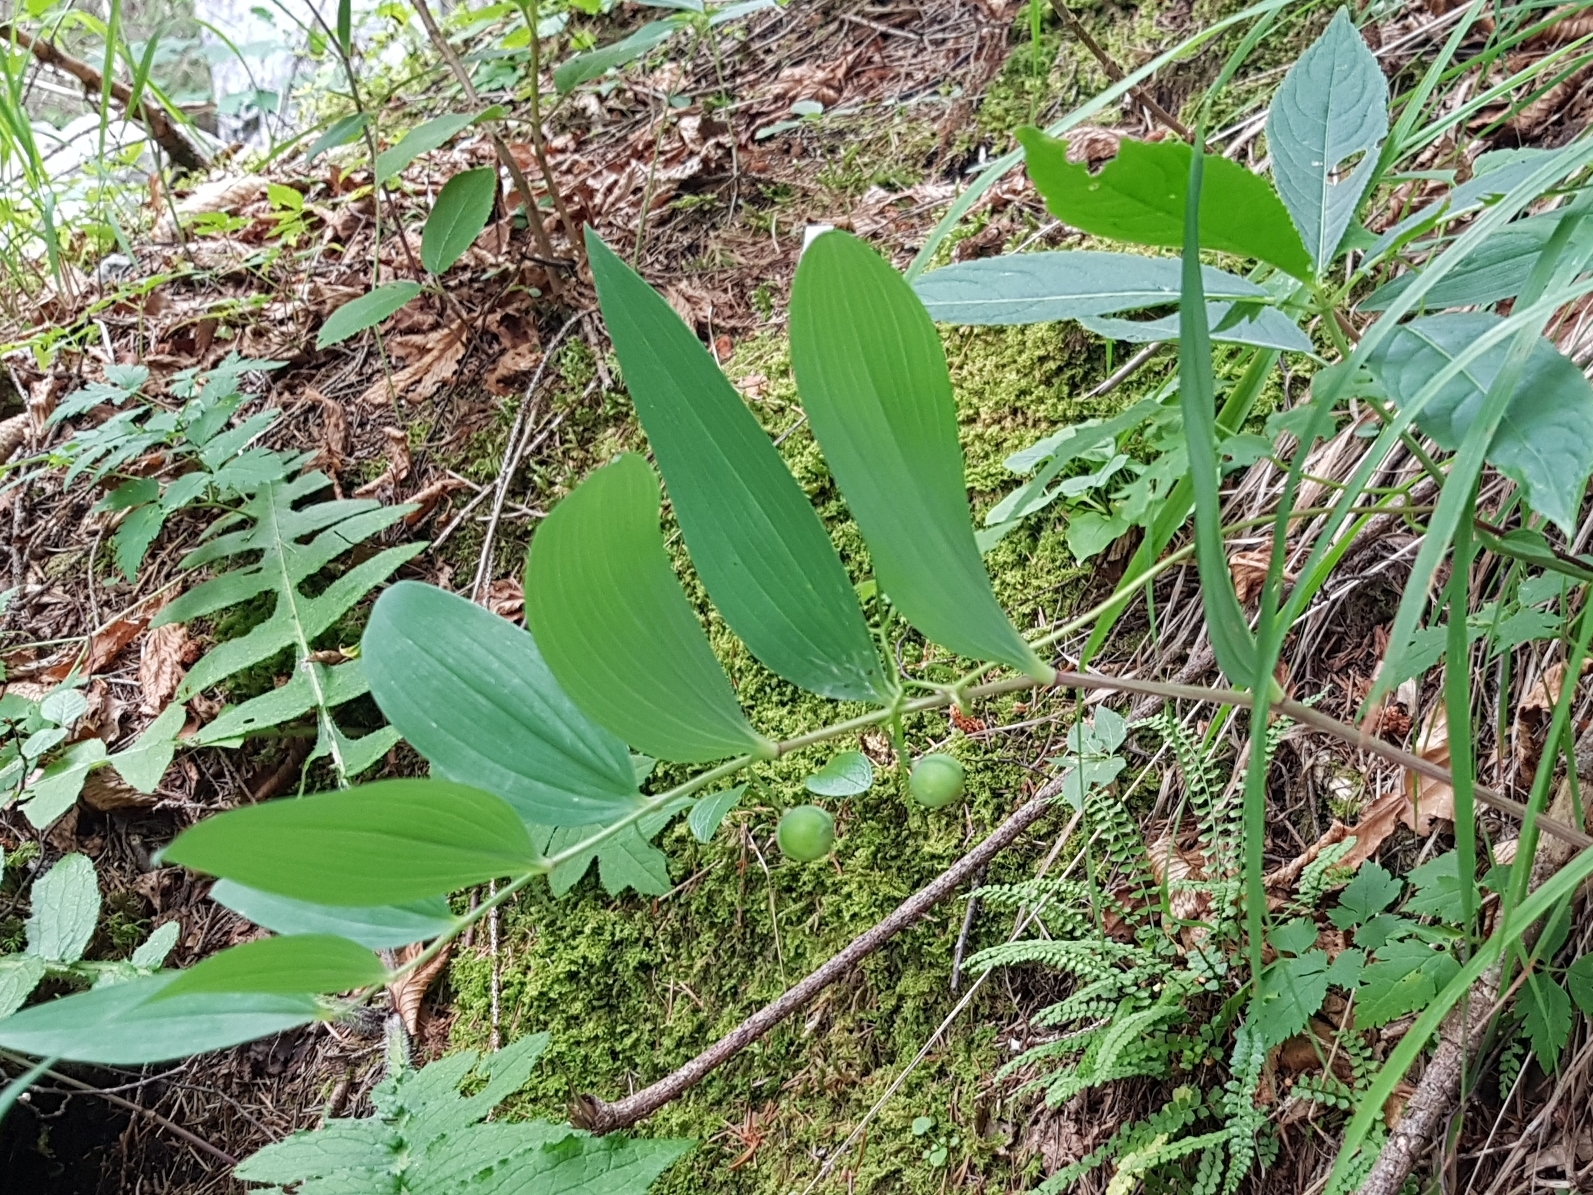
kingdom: Plantae
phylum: Tracheophyta
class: Liliopsida
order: Asparagales
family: Asparagaceae
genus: Polygonatum
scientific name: Polygonatum odoratum
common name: Angular solomon's-seal
